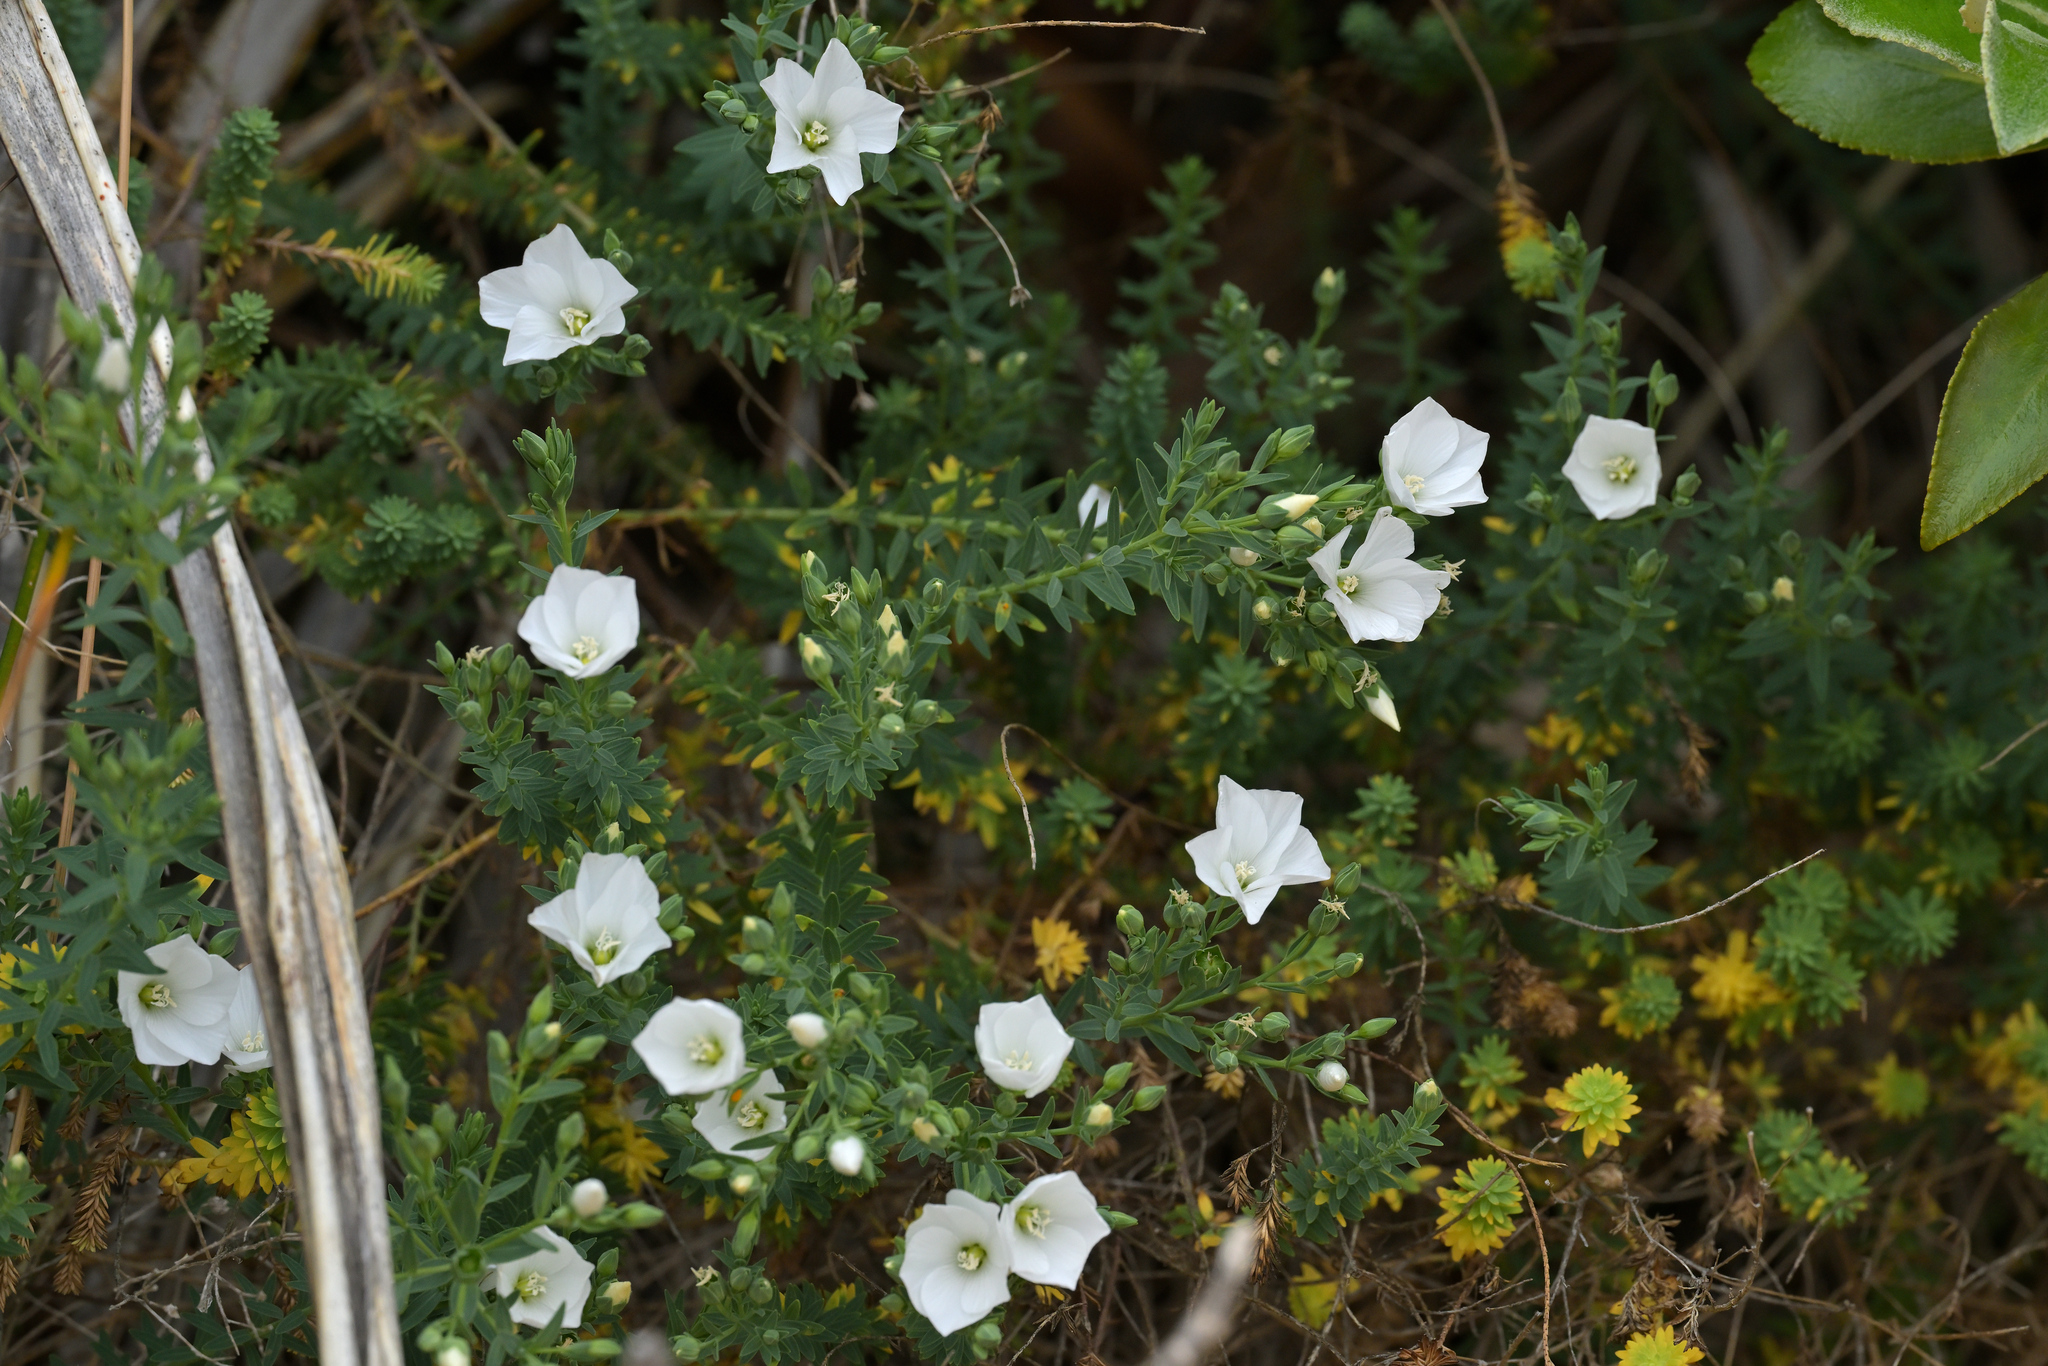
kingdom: Plantae
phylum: Tracheophyta
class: Magnoliopsida
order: Malpighiales
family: Linaceae
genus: Linum
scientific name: Linum monogynum
